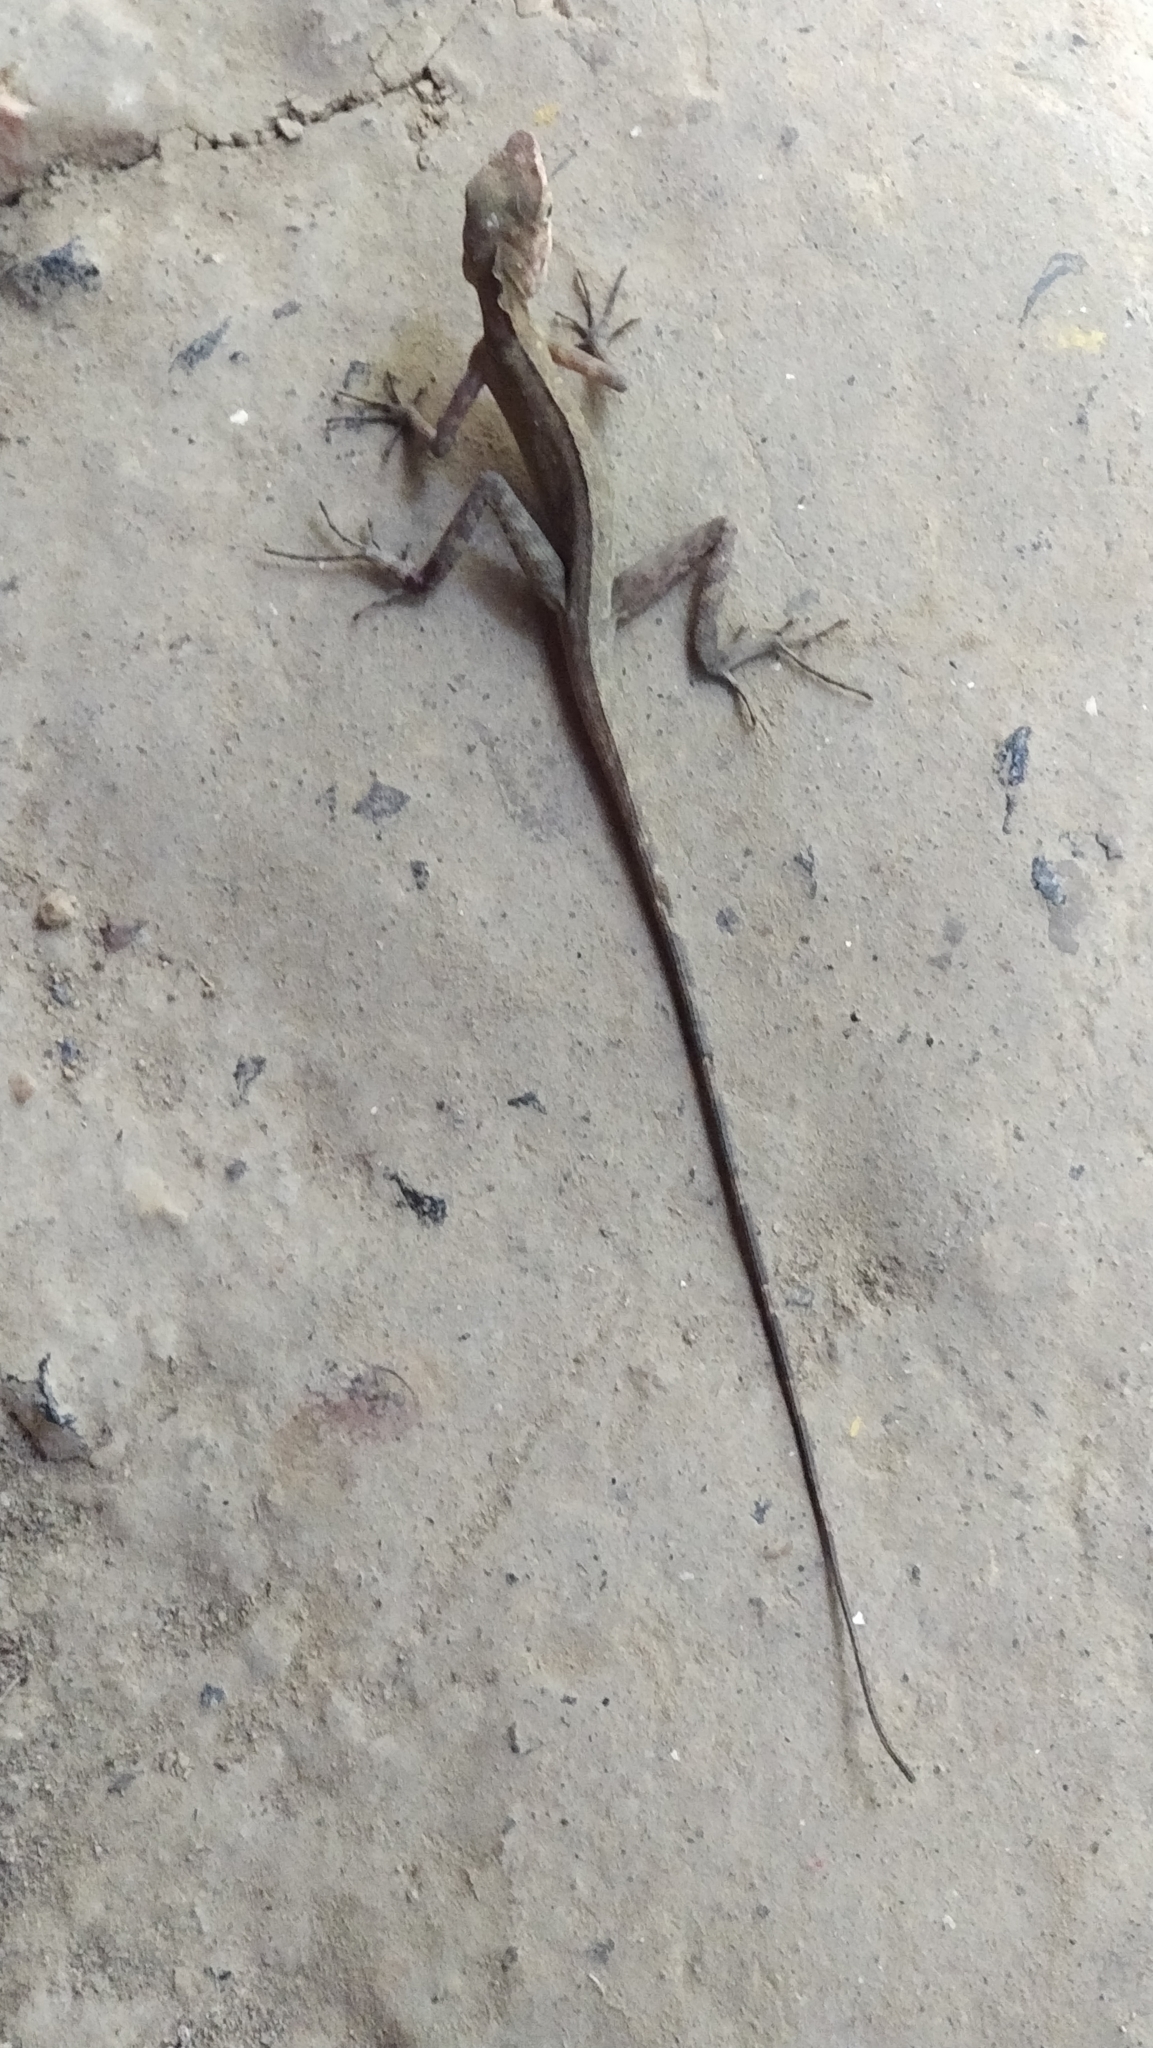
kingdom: Animalia
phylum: Chordata
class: Squamata
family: Agamidae
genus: Coryphophylax
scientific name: Coryphophylax subcristatus
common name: Short-crested bay island forest lizard
